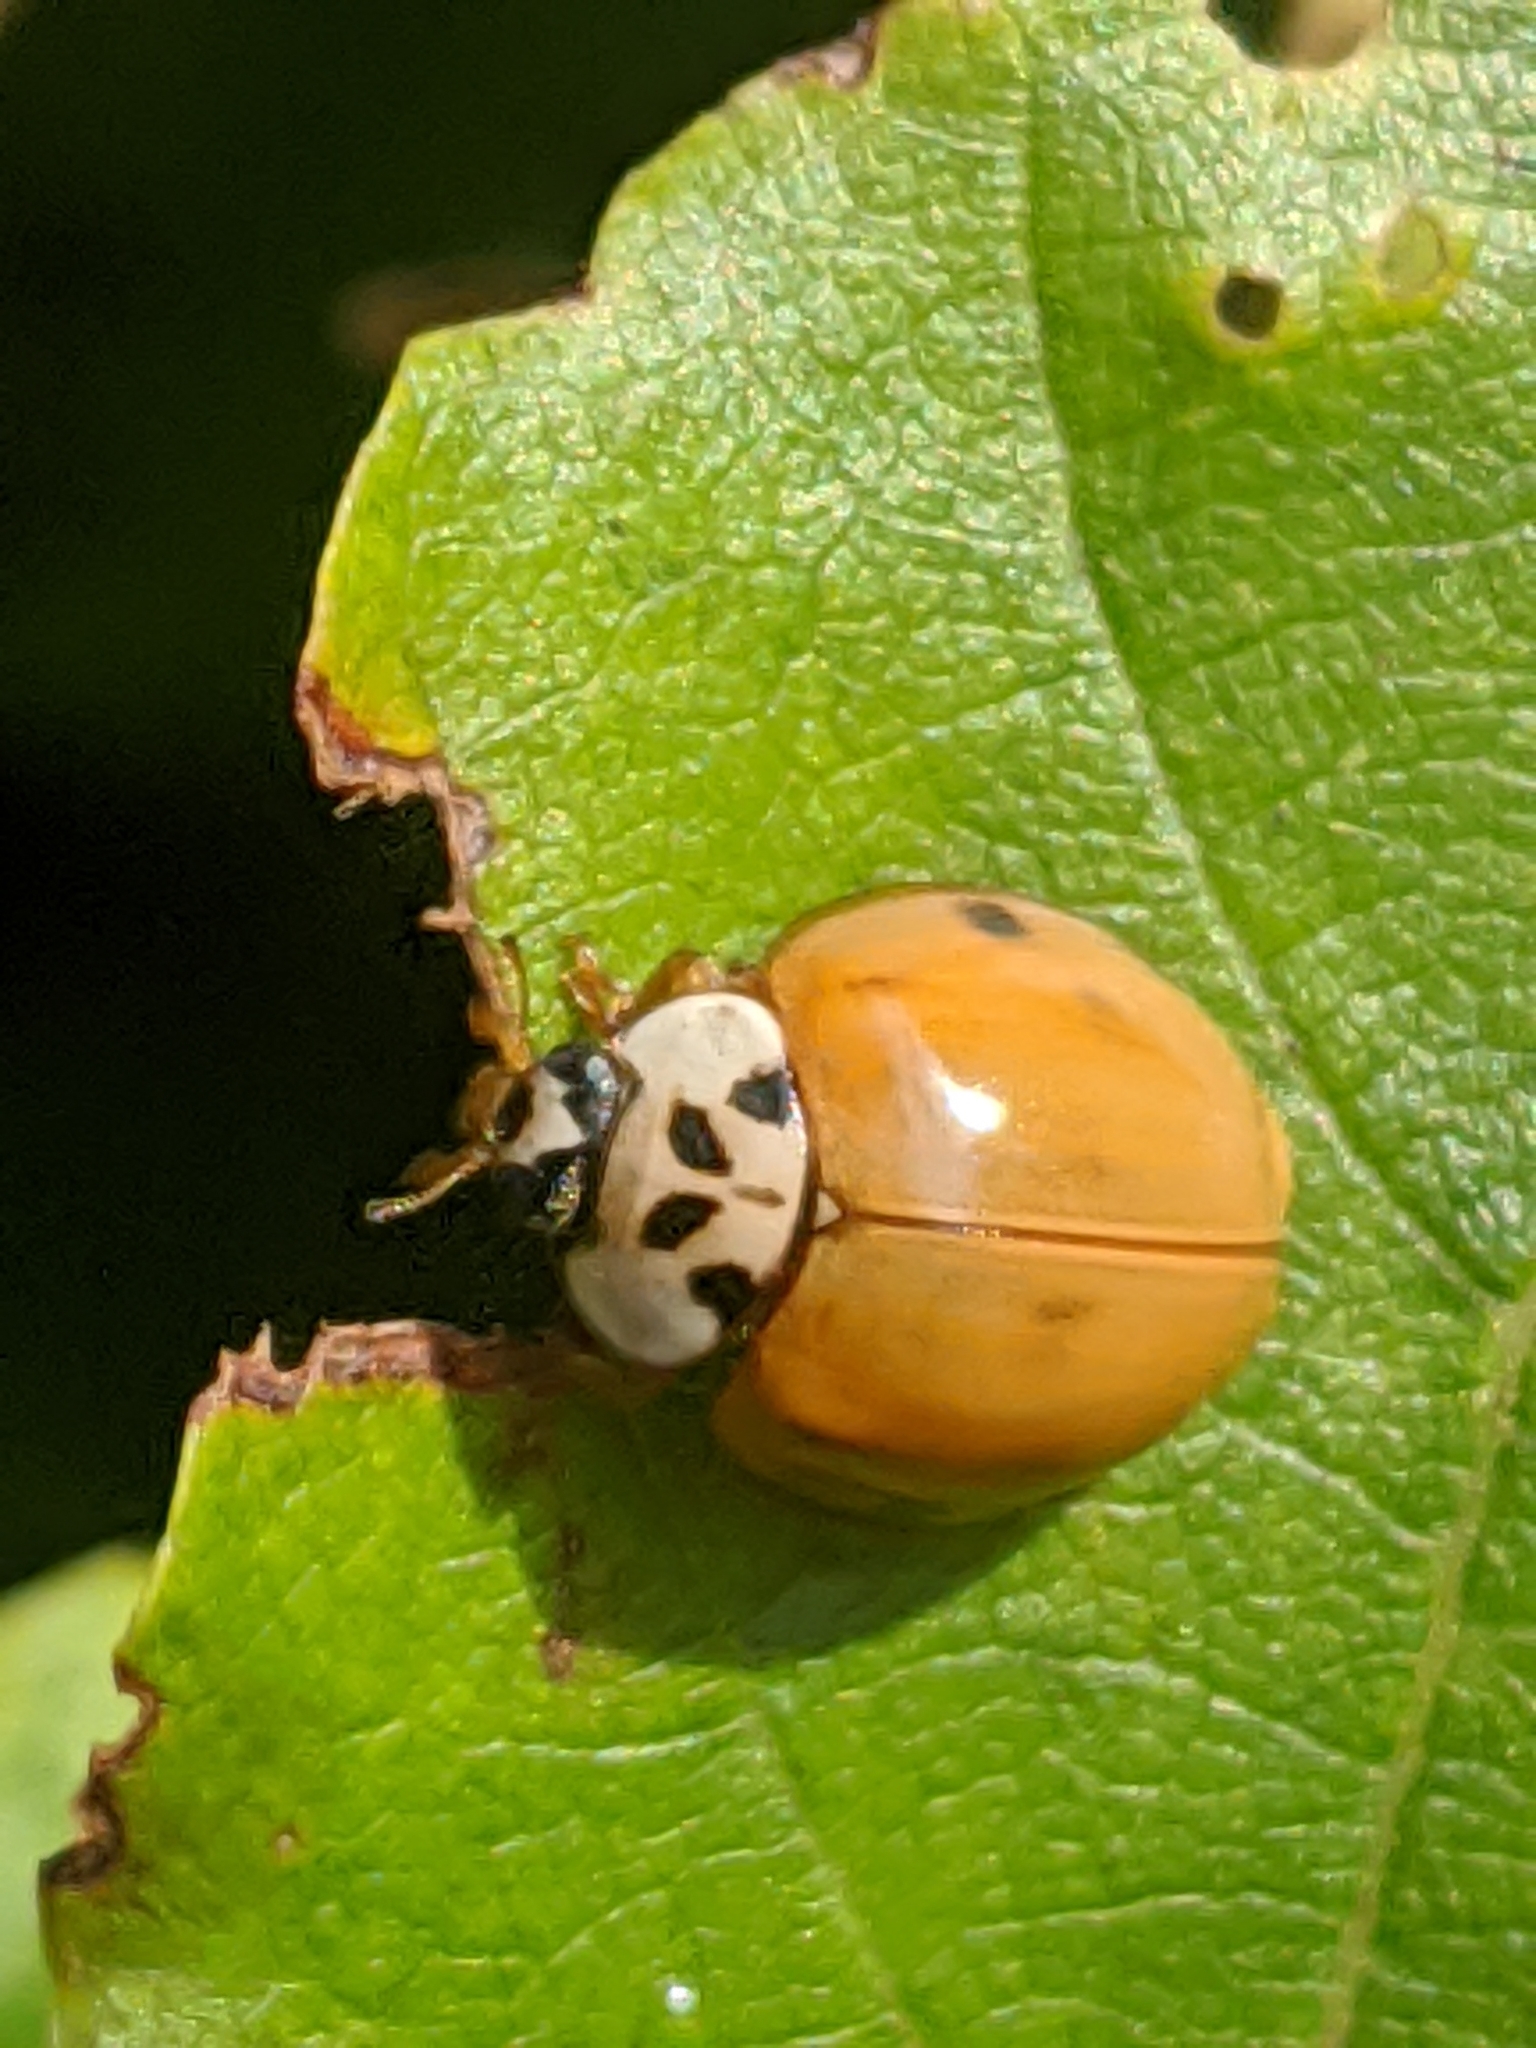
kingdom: Animalia
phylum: Arthropoda
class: Insecta
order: Coleoptera
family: Coccinellidae
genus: Harmonia
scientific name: Harmonia axyridis
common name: Harlequin ladybird
